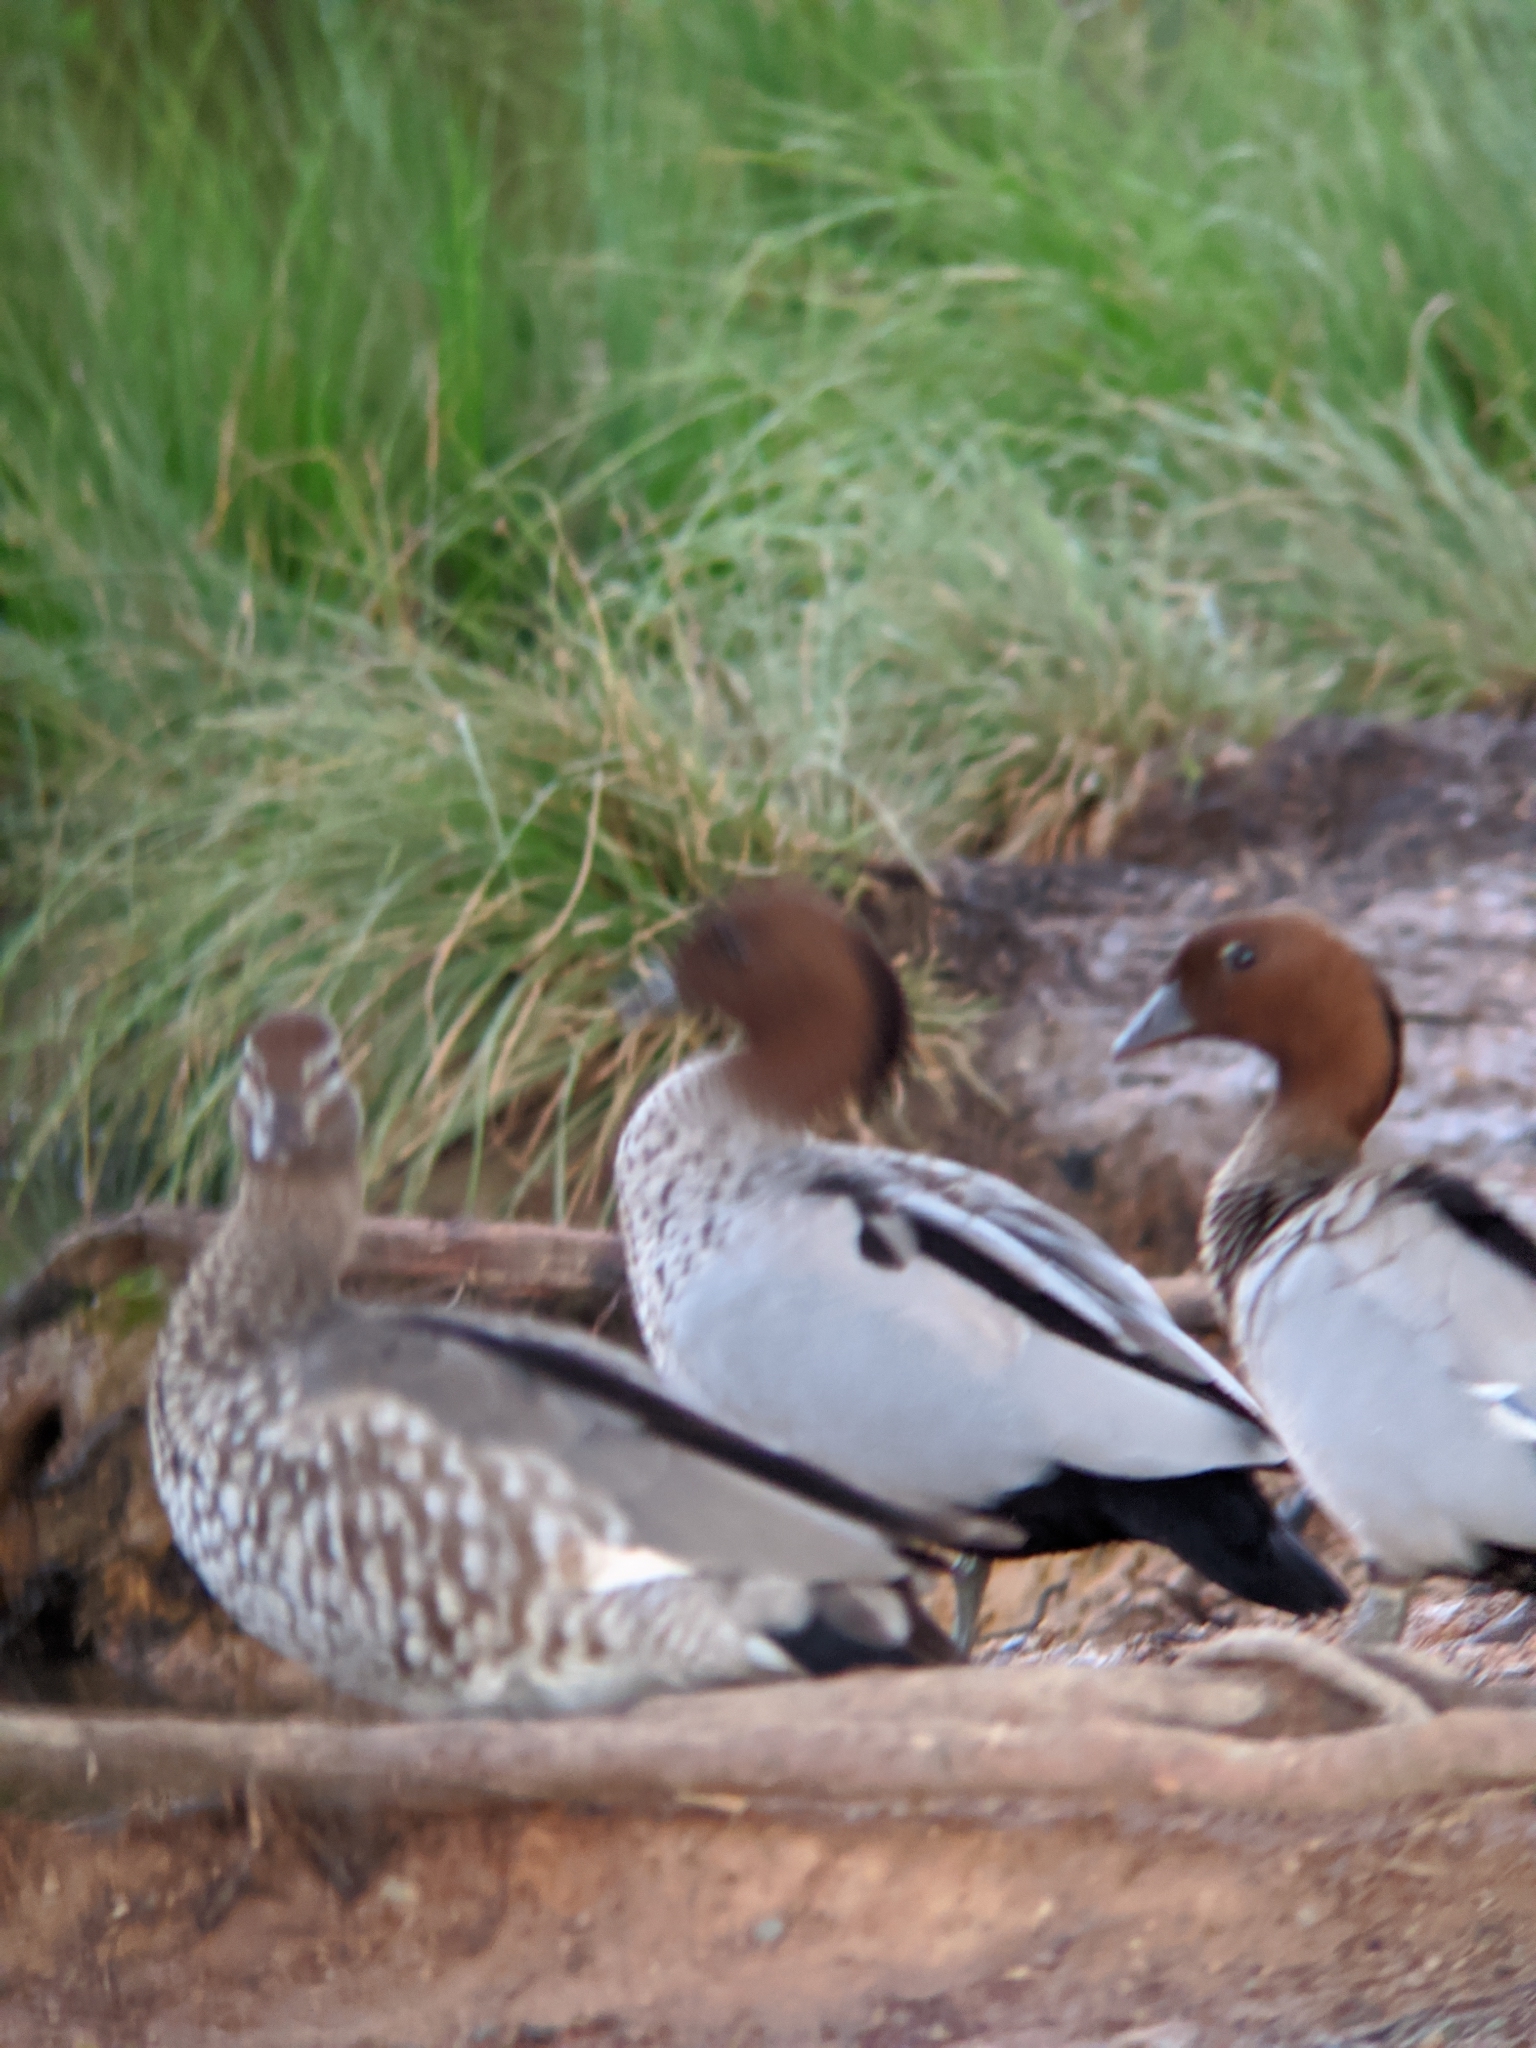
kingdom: Animalia
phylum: Chordata
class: Aves
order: Anseriformes
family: Anatidae
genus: Chenonetta
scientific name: Chenonetta jubata
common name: Maned duck
